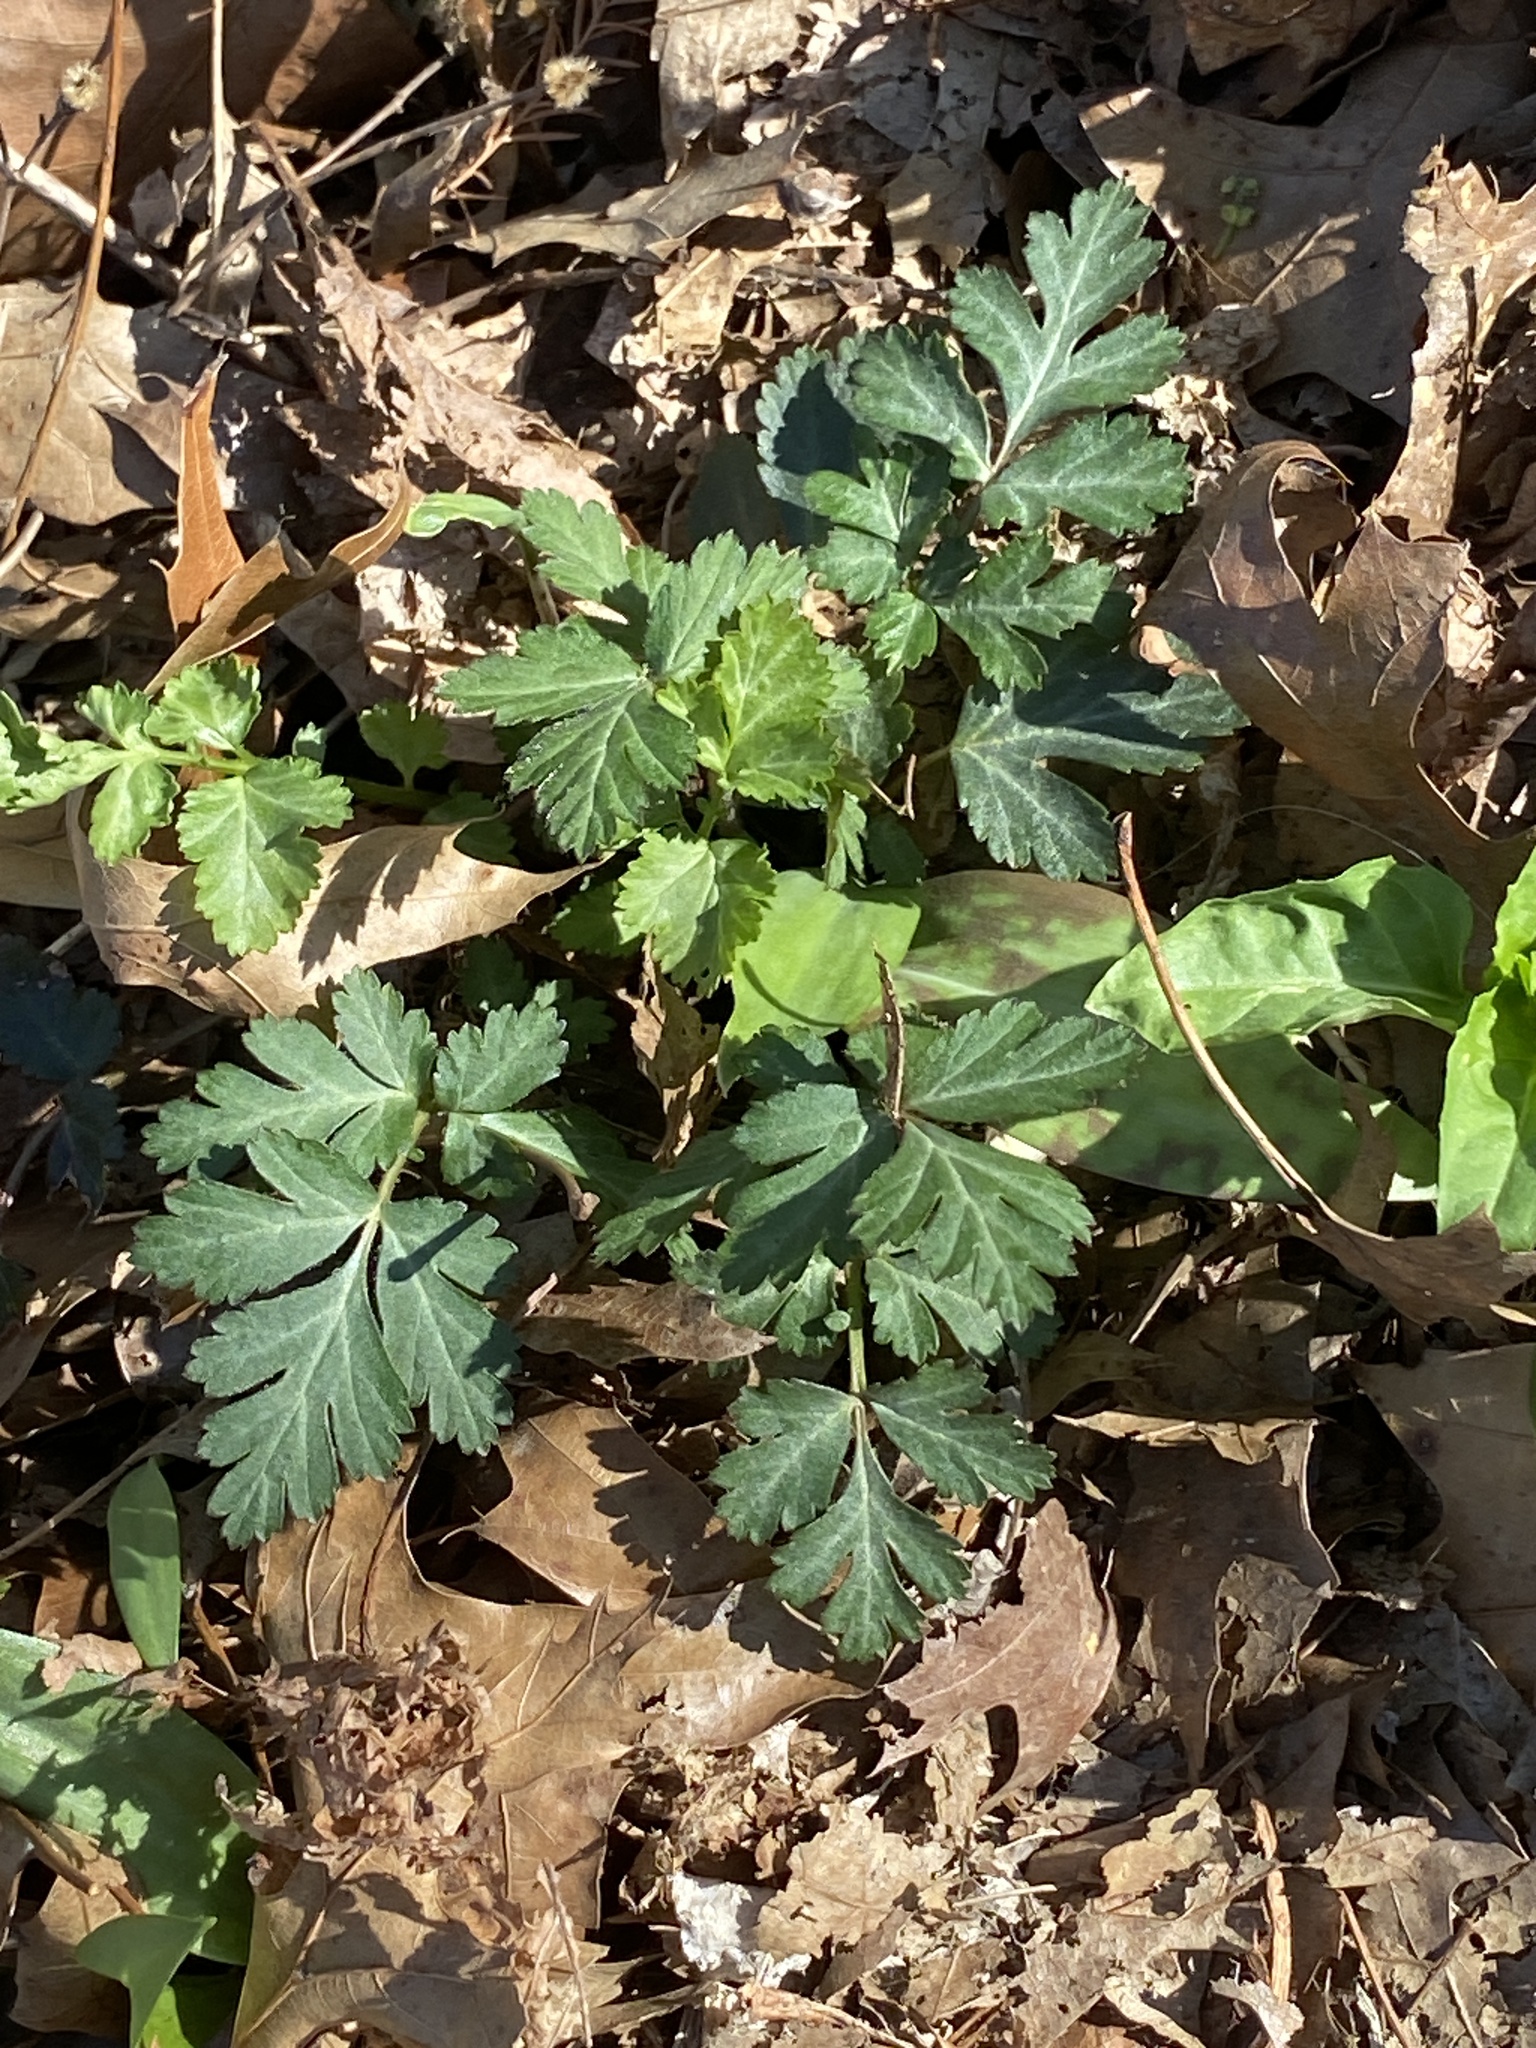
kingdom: Plantae
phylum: Tracheophyta
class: Magnoliopsida
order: Rosales
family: Rosaceae
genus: Geum
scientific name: Geum canadense
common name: White avens
